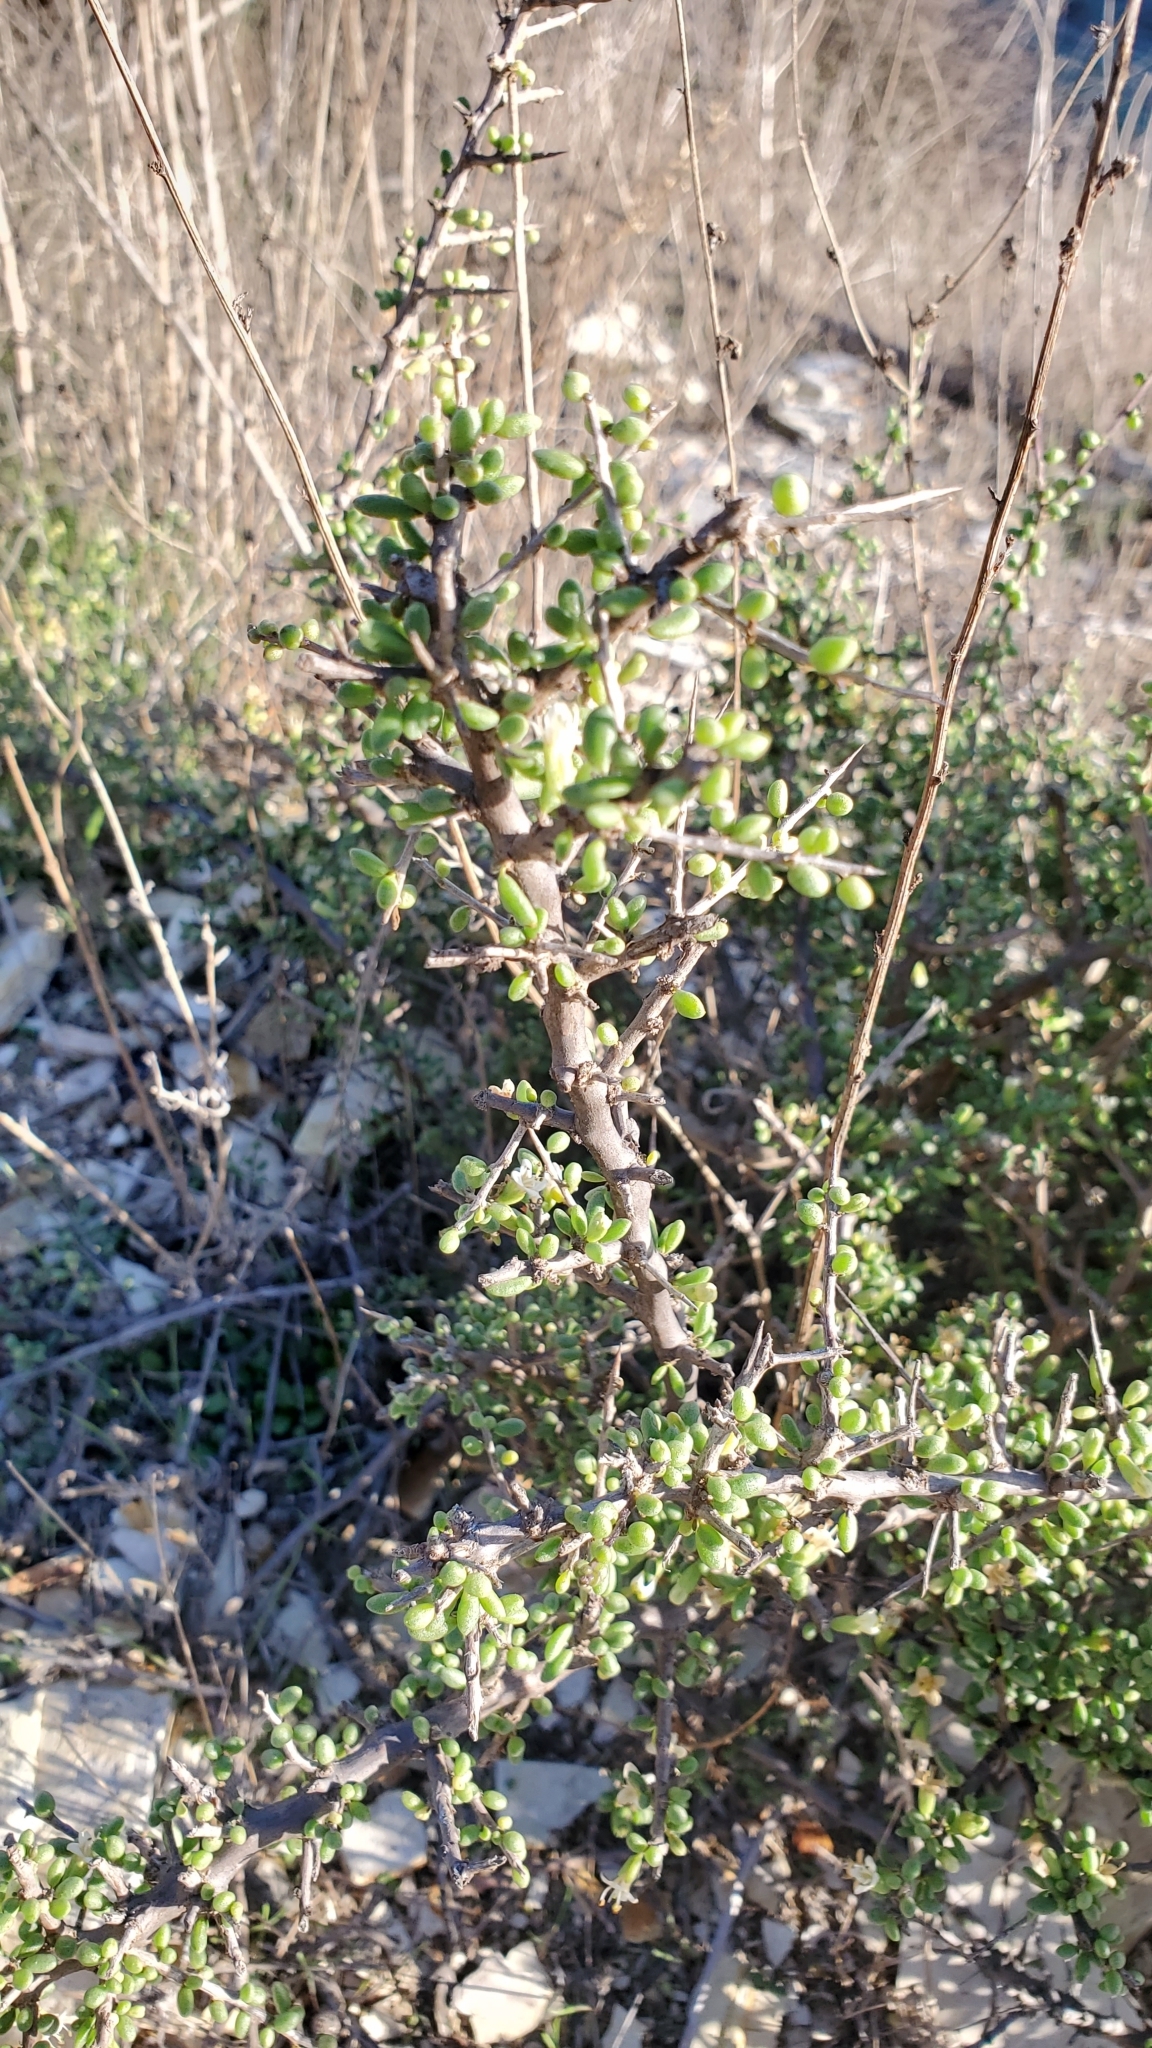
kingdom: Plantae
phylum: Tracheophyta
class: Magnoliopsida
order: Solanales
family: Solanaceae
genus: Lycium
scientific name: Lycium californicum
